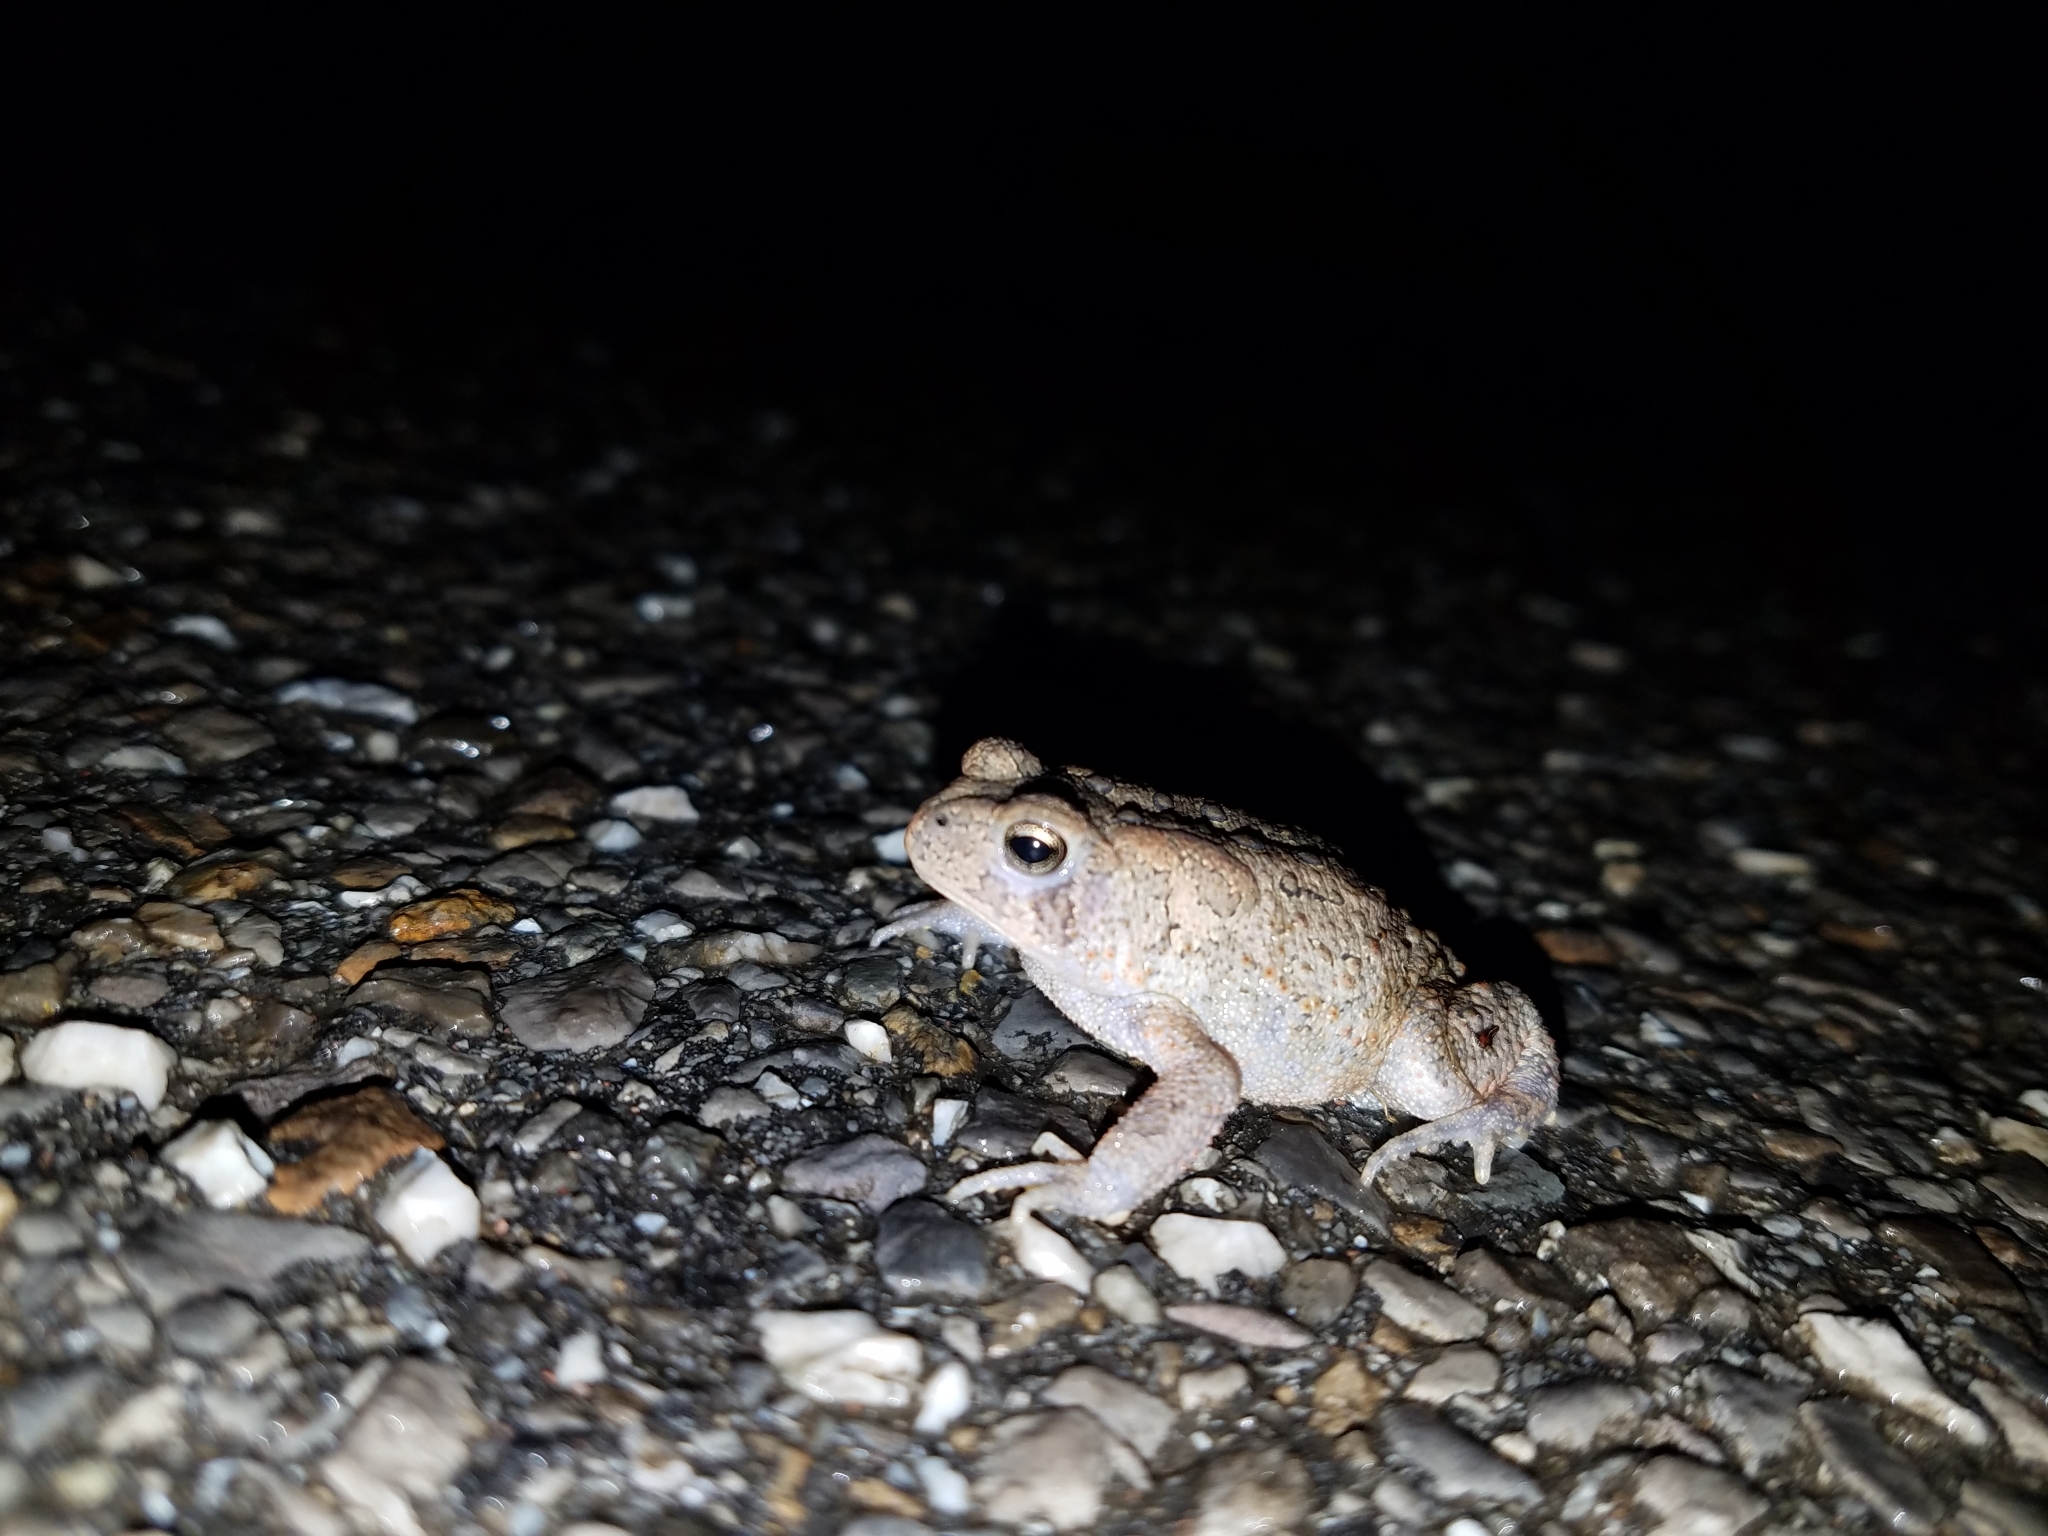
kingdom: Animalia
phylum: Chordata
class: Amphibia
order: Anura
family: Bufonidae
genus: Anaxyrus
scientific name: Anaxyrus americanus
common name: American toad
